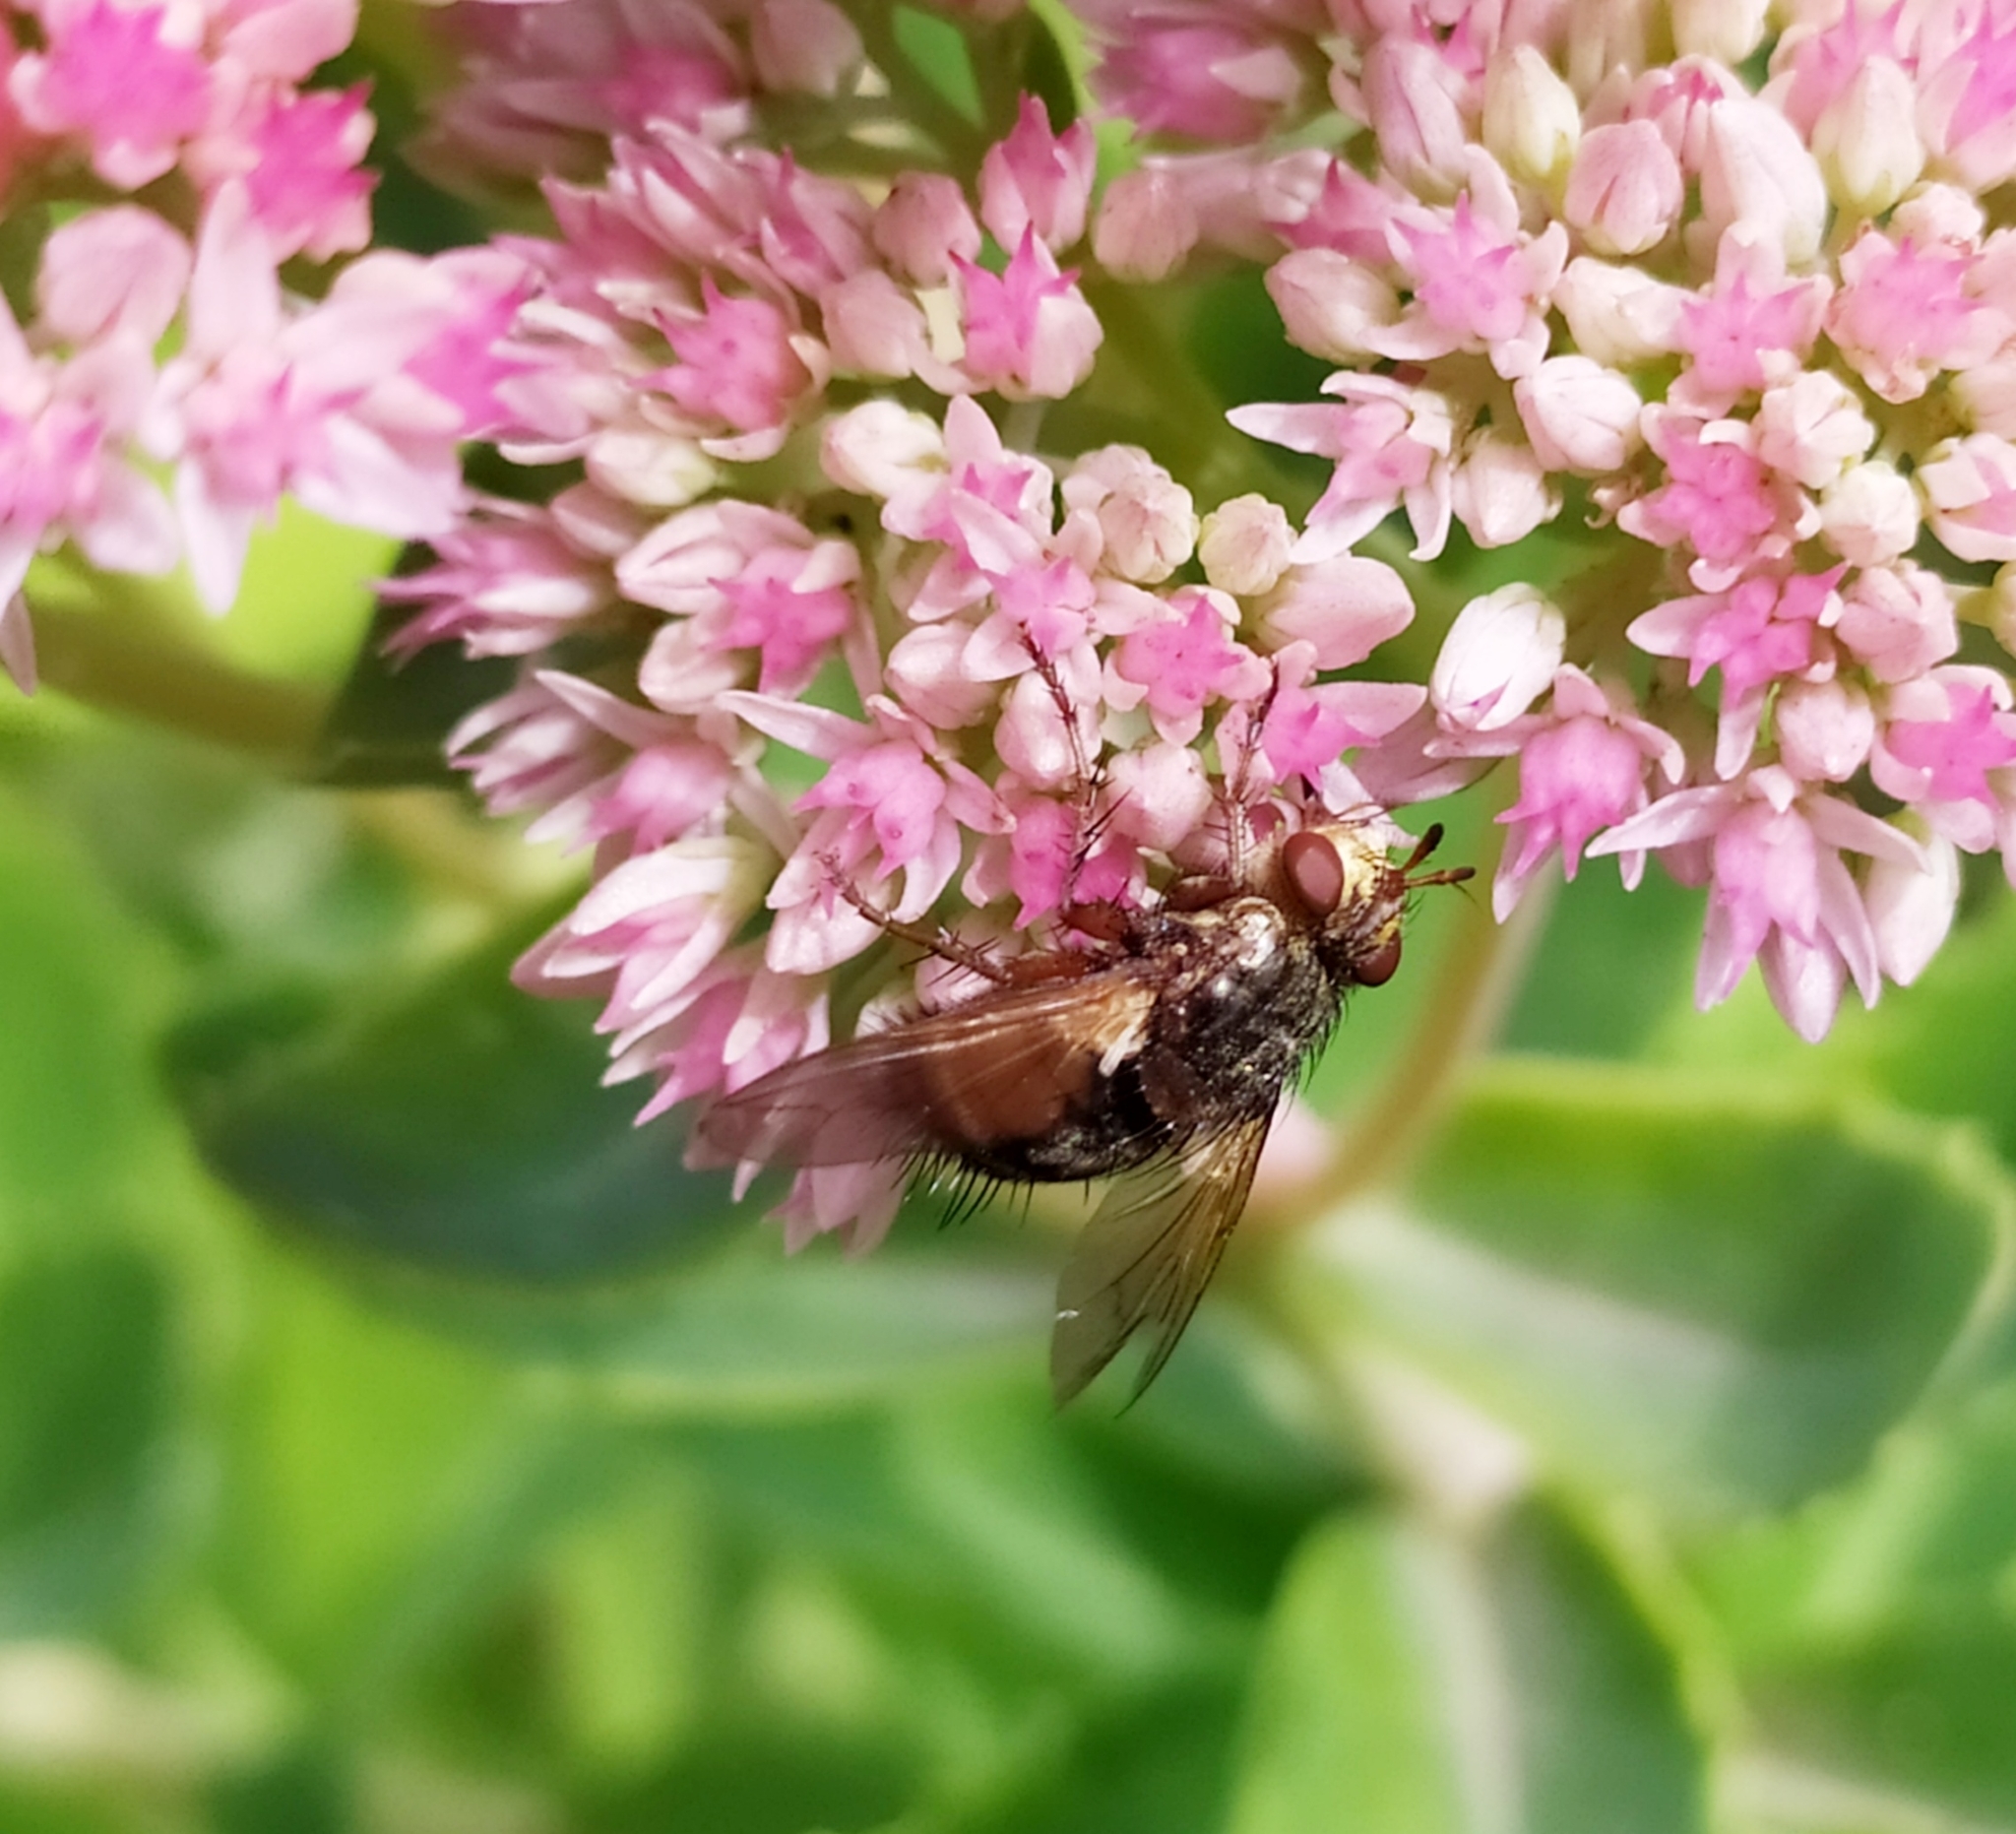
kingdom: Animalia
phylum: Arthropoda
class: Insecta
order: Diptera
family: Tachinidae
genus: Tachina
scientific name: Tachina fera
